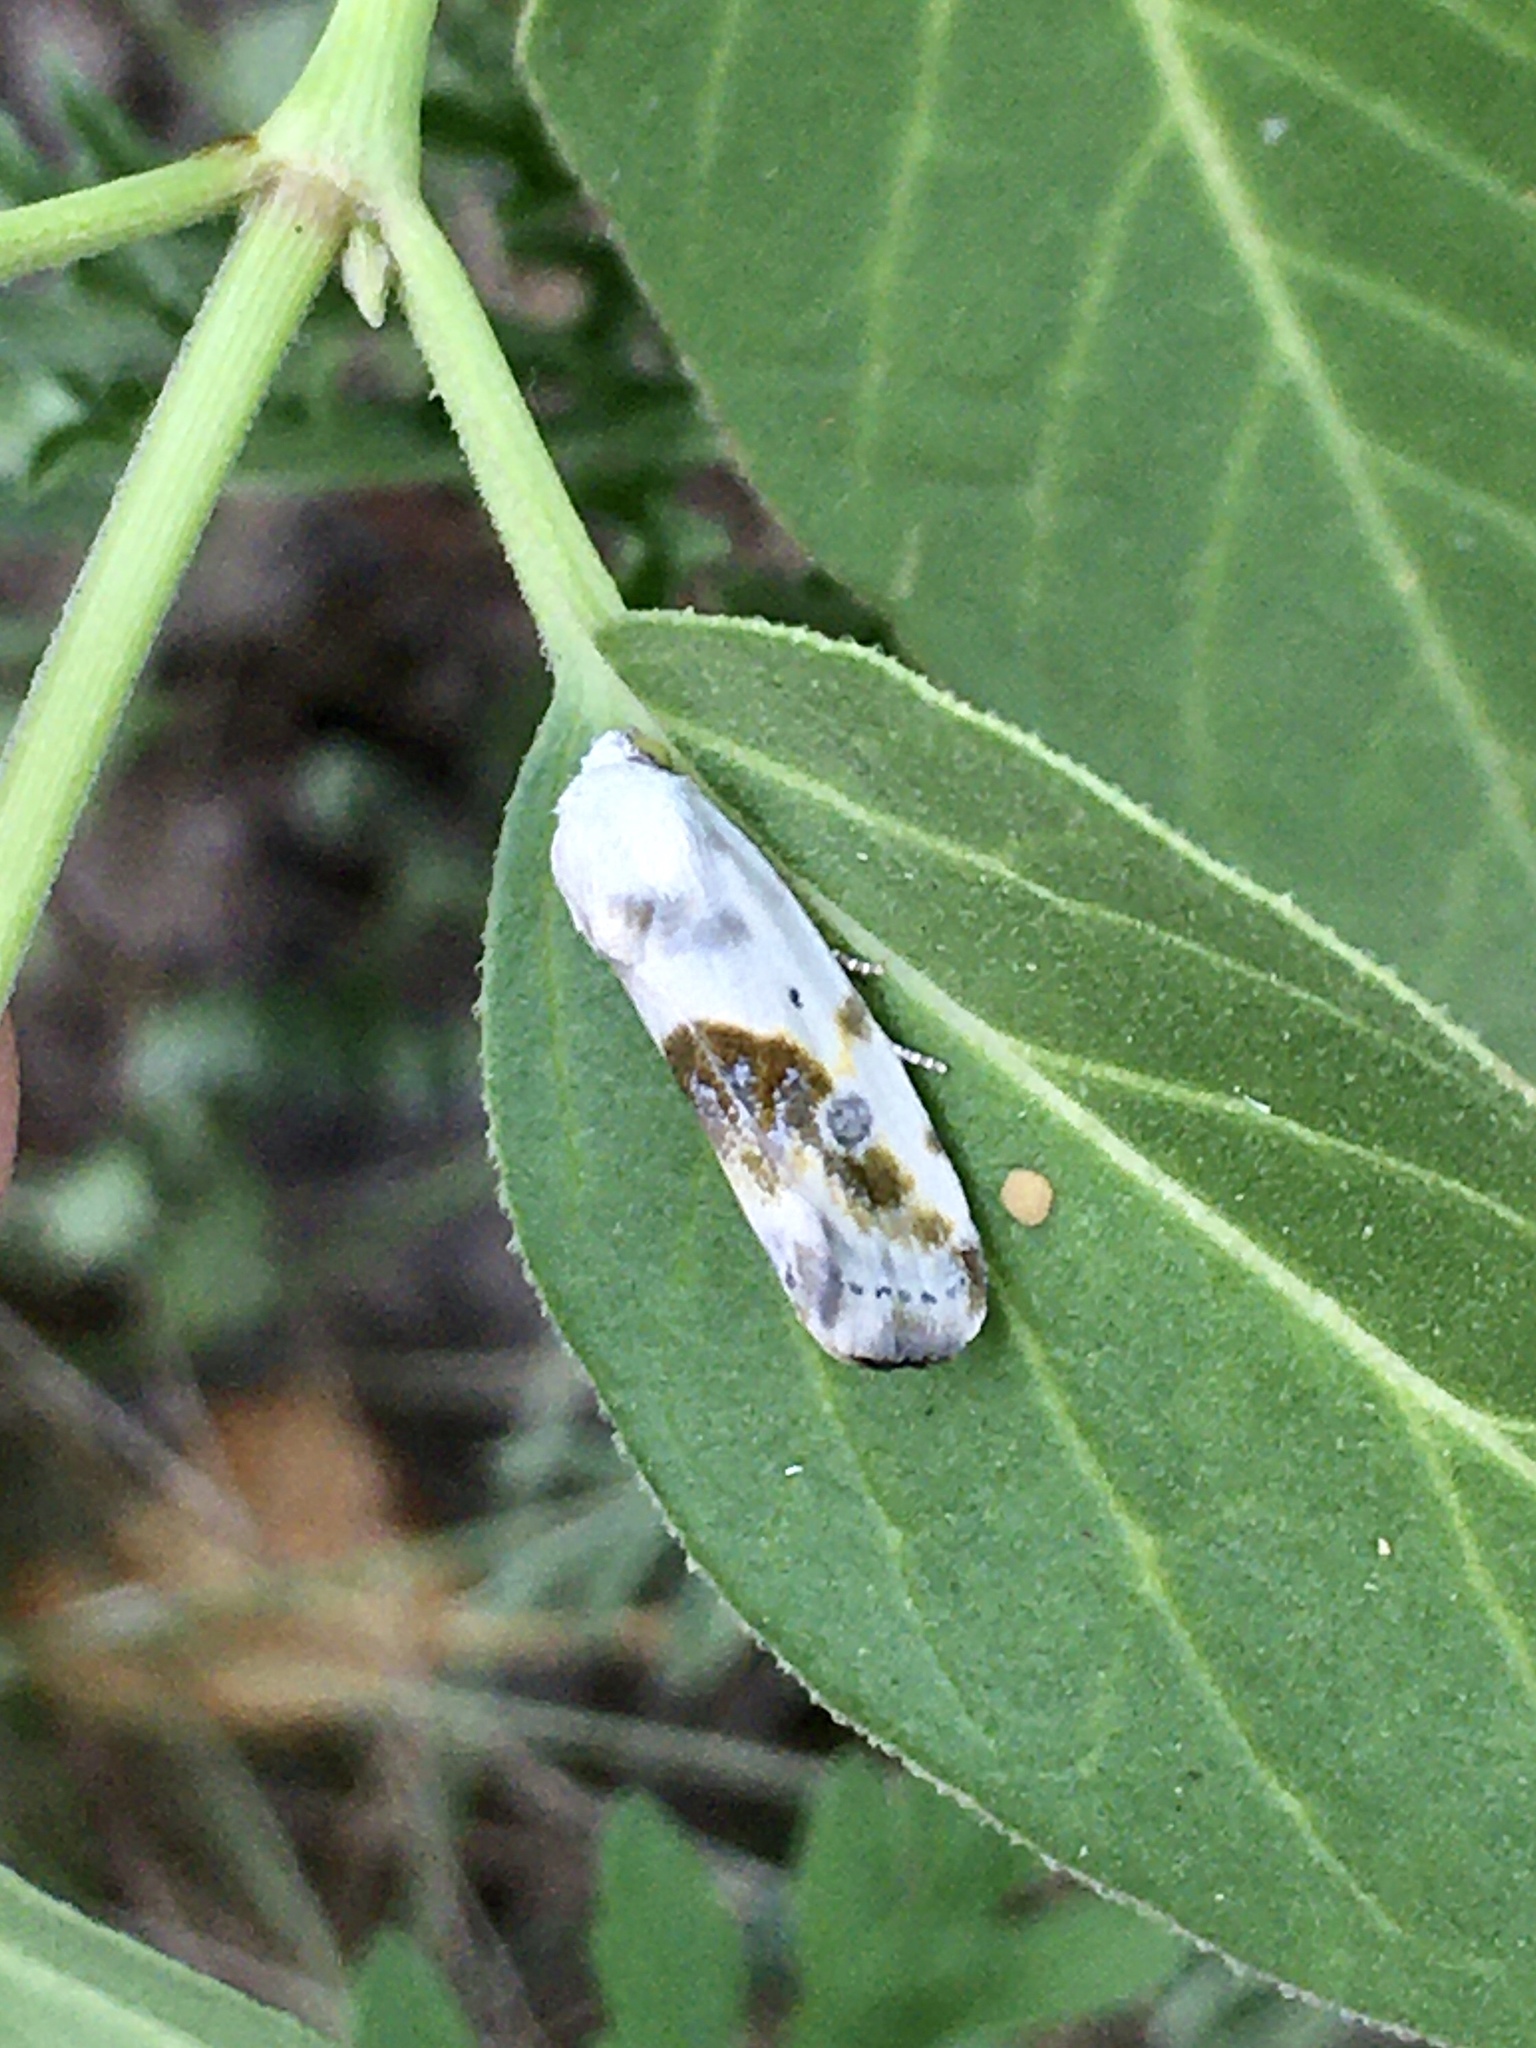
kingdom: Animalia
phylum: Arthropoda
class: Insecta
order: Lepidoptera
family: Noctuidae
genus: Acontia
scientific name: Acontia candefacta
